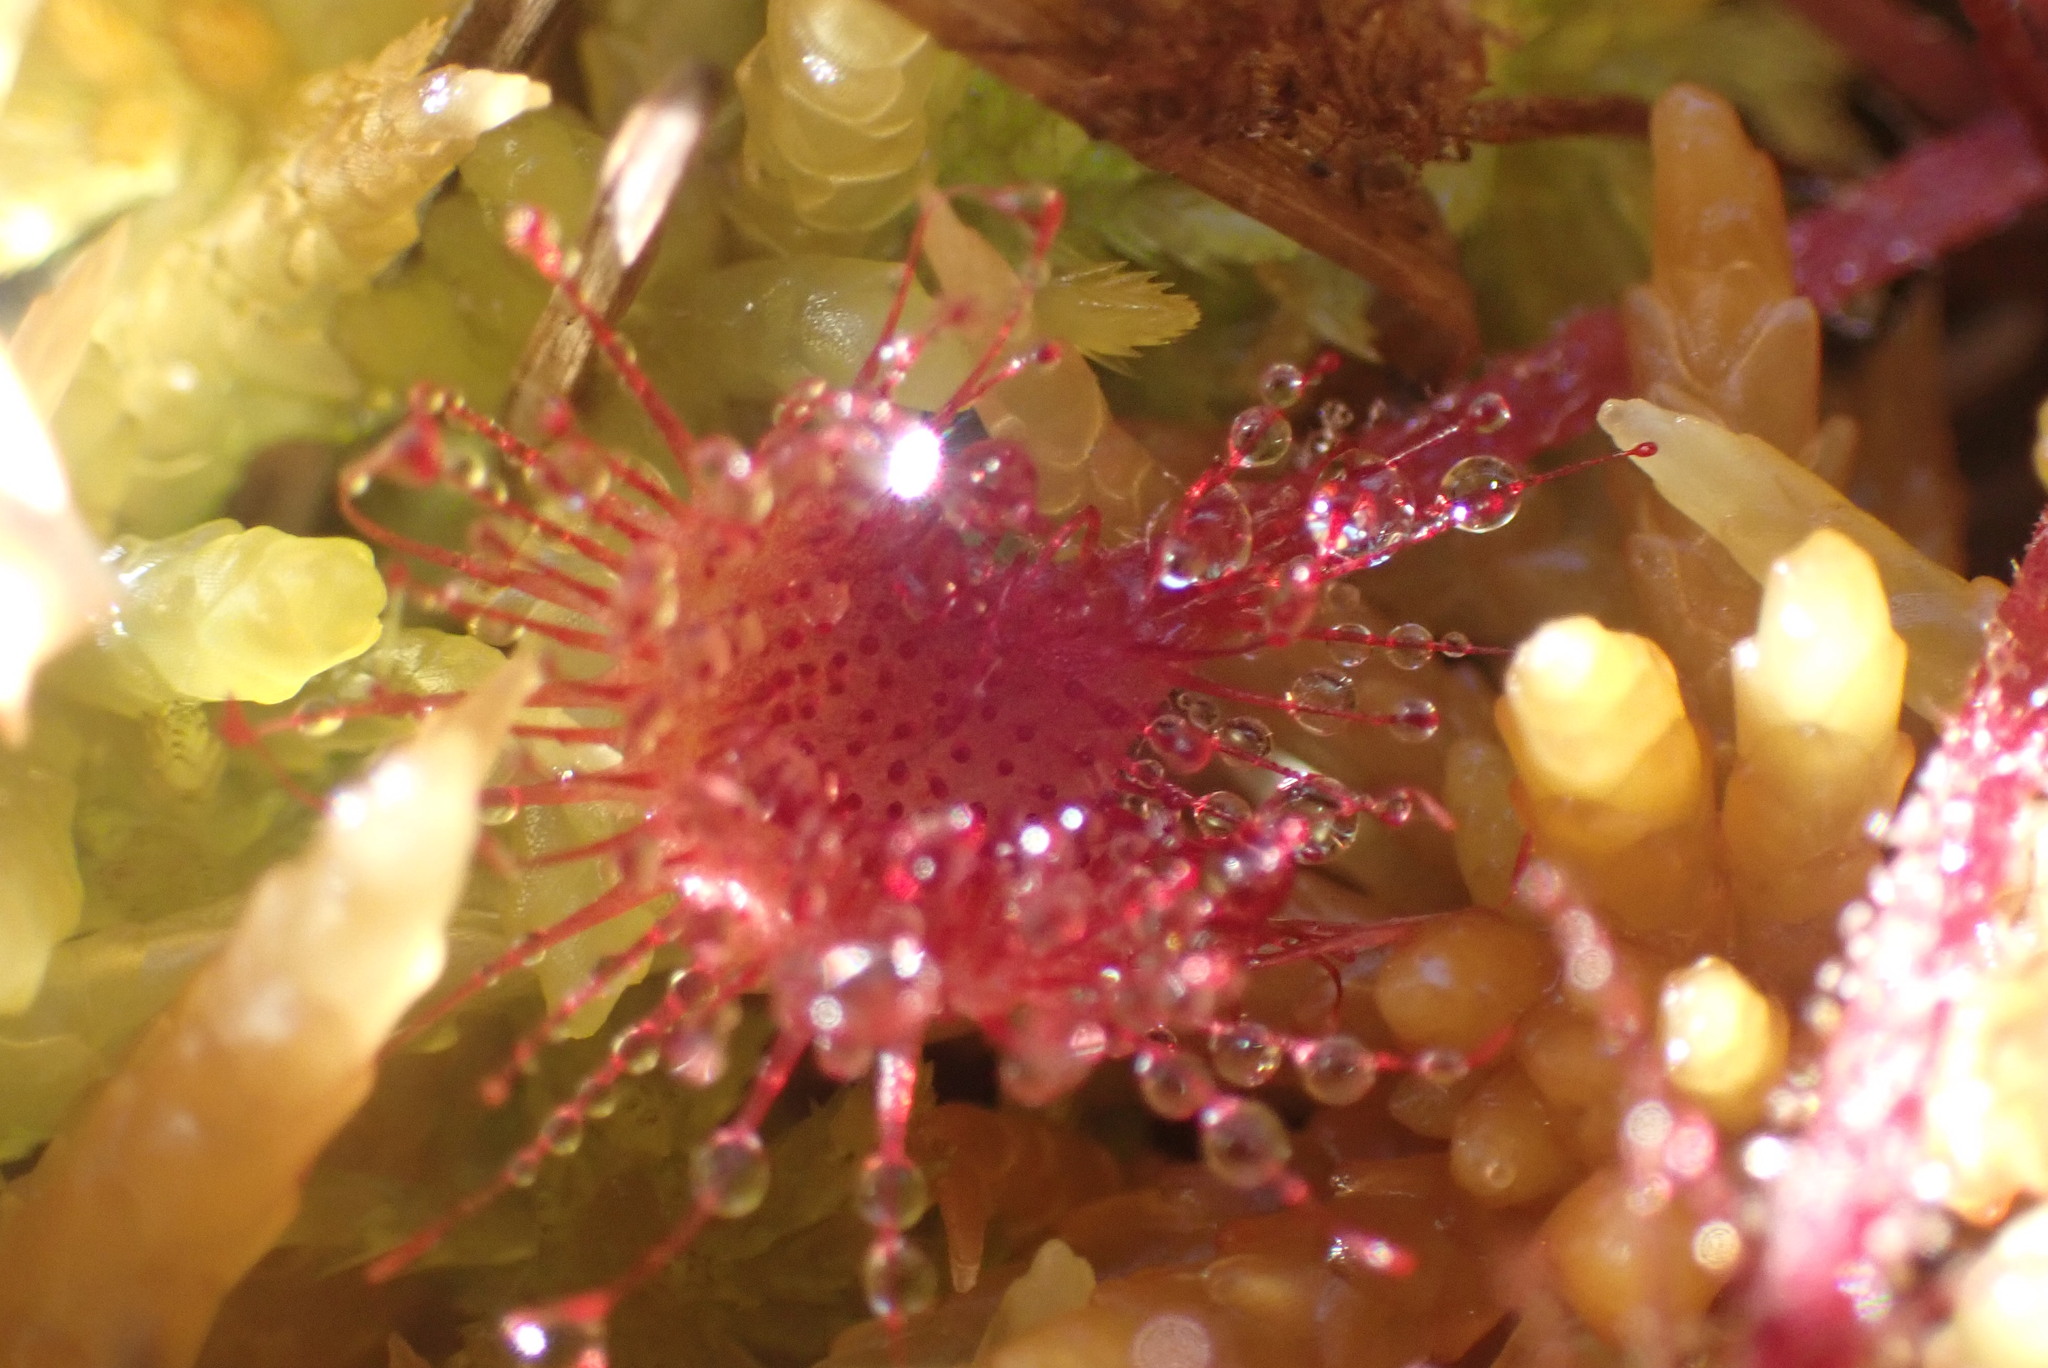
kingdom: Plantae
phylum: Tracheophyta
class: Magnoliopsida
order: Caryophyllales
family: Droseraceae
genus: Drosera
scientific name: Drosera rotundifolia
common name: Round-leaved sundew
